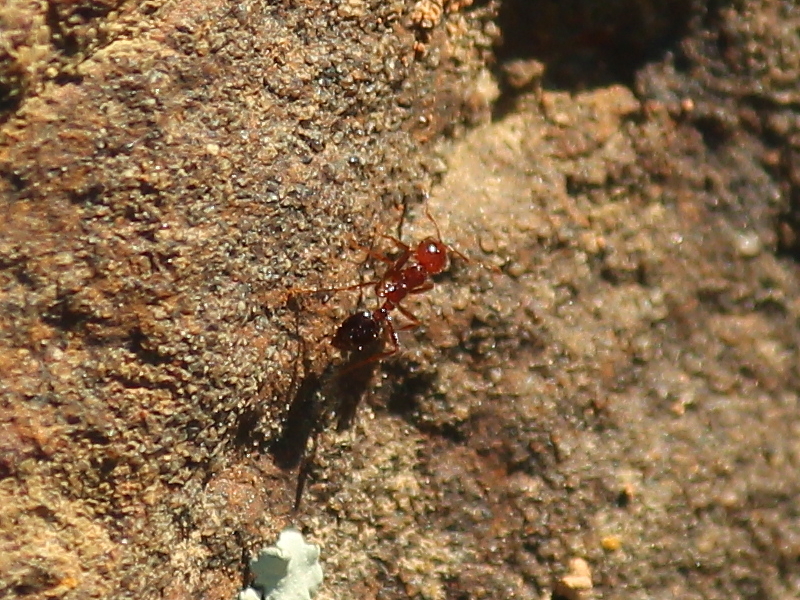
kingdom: Animalia
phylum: Arthropoda
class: Insecta
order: Hymenoptera
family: Formicidae
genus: Solenopsis
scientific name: Solenopsis invicta
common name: Red imported fire ant
